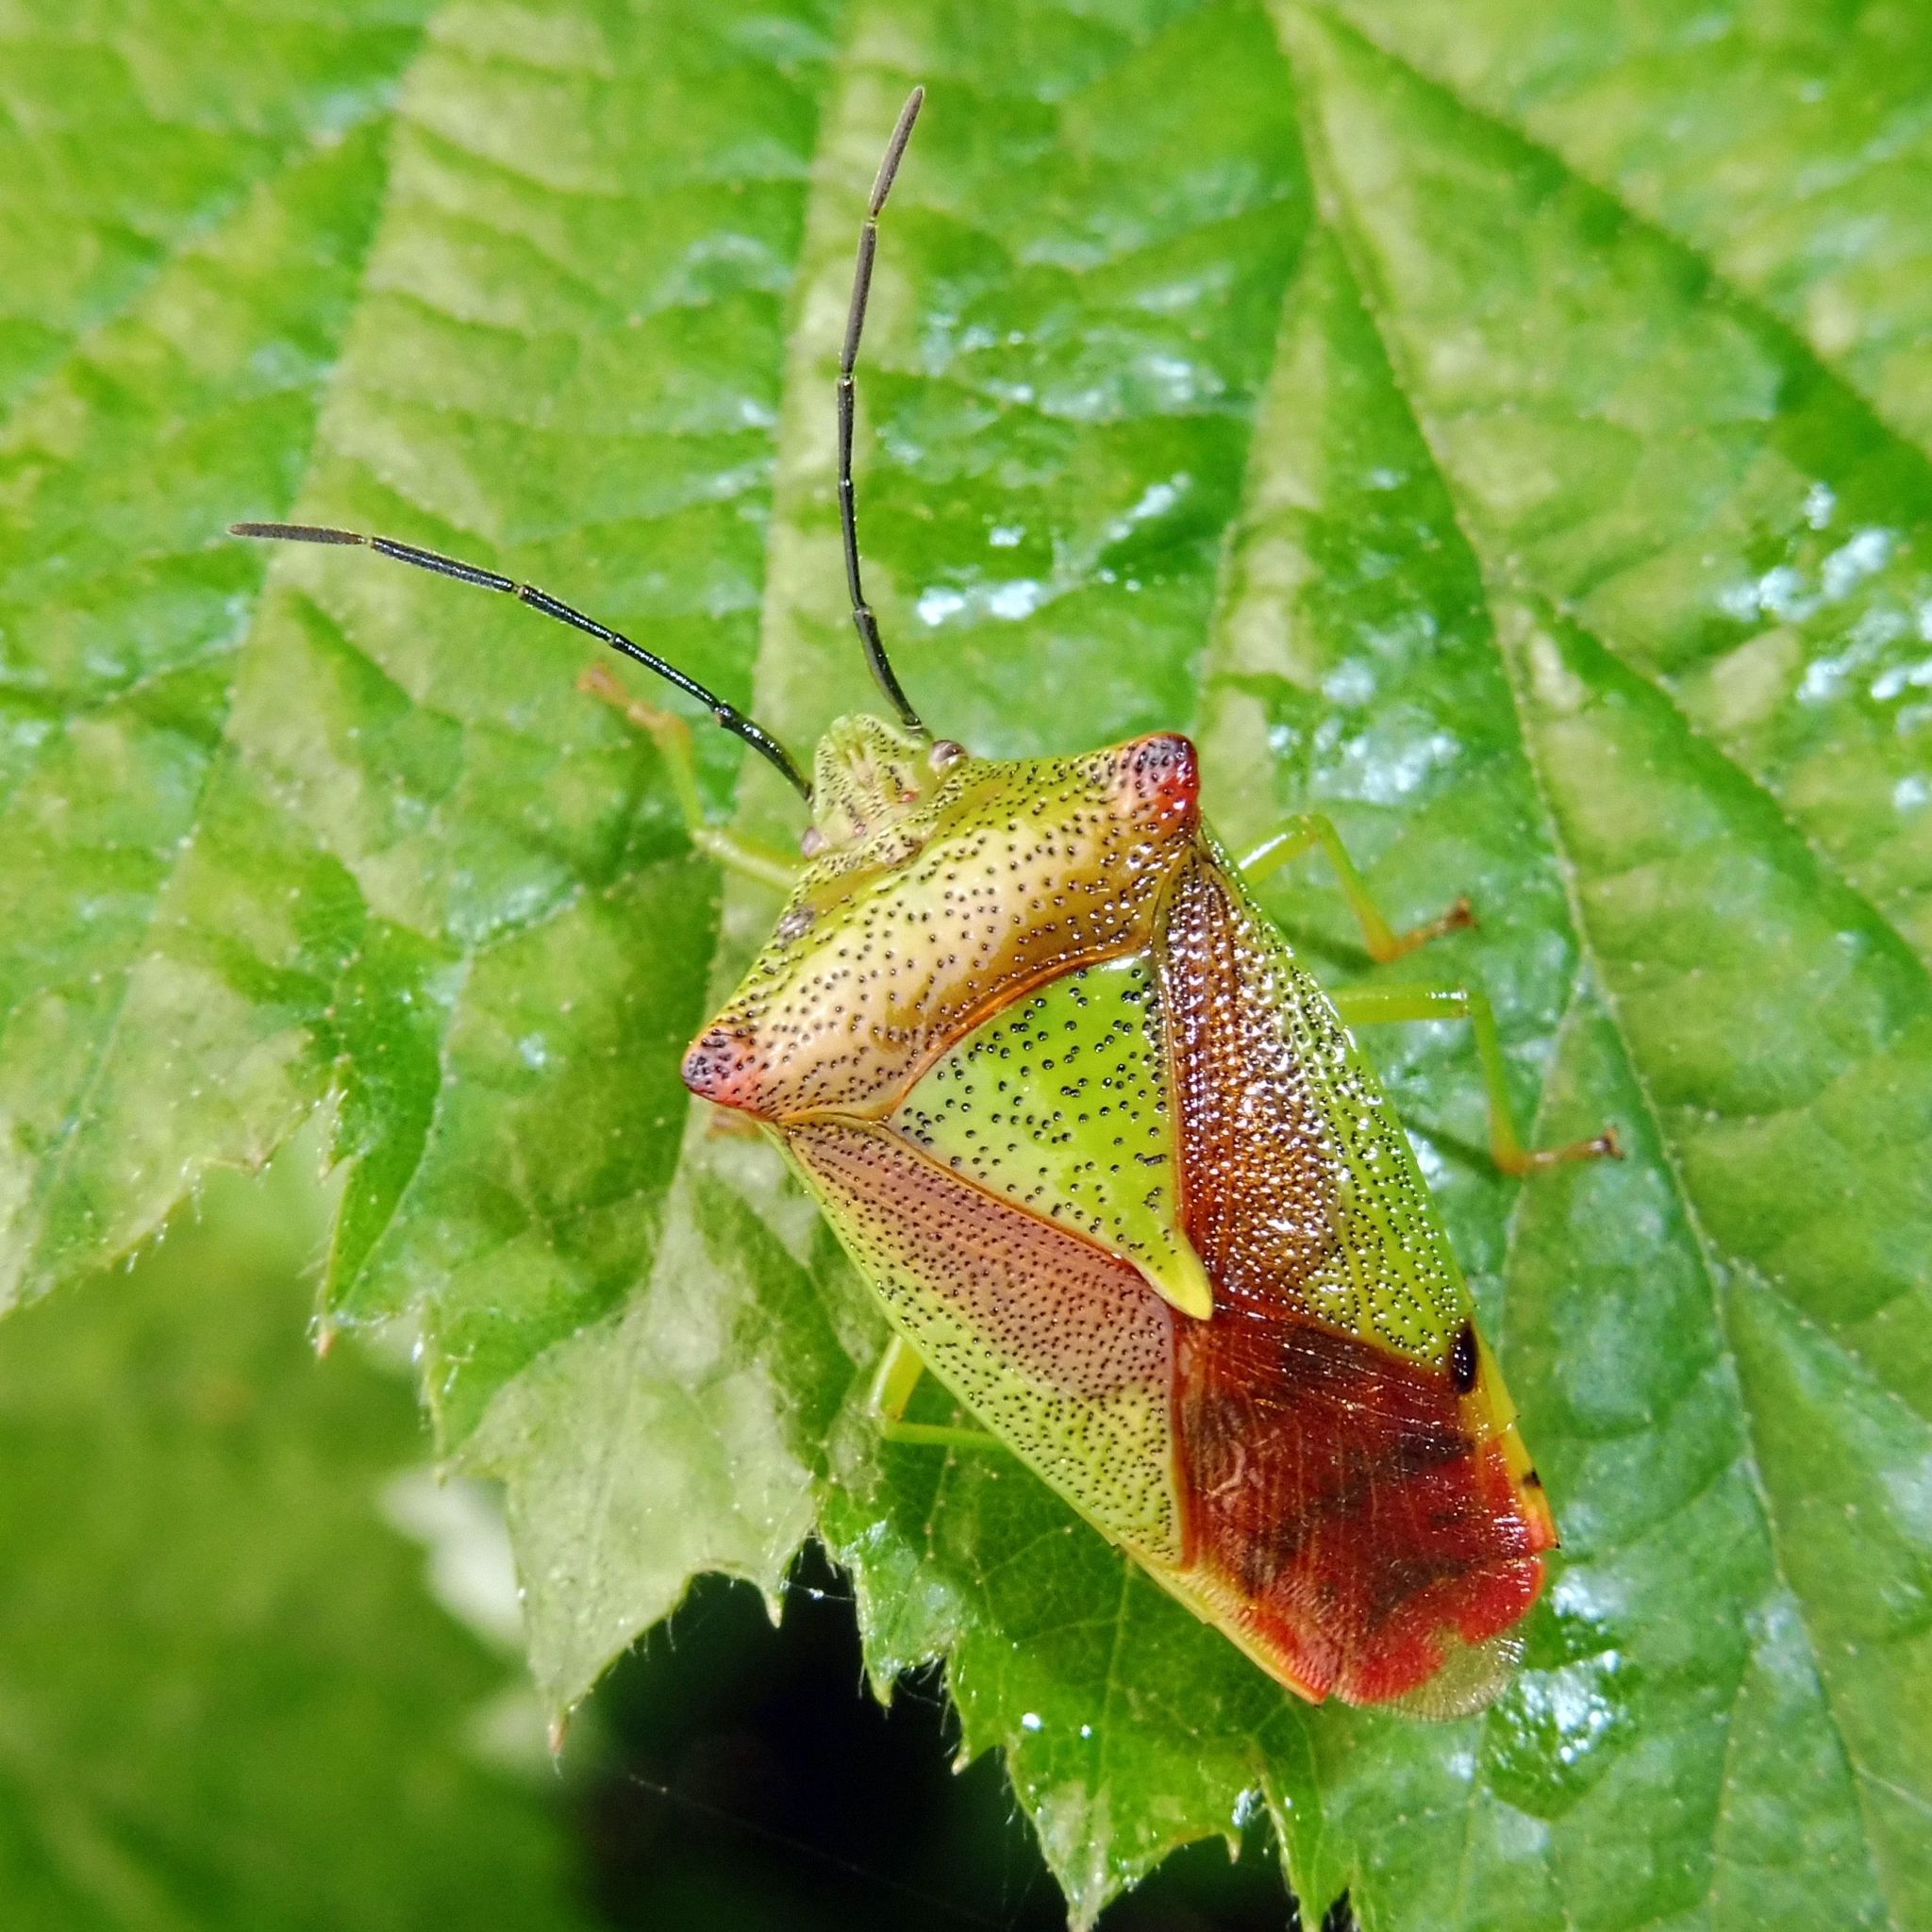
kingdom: Animalia
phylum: Arthropoda
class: Insecta
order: Hemiptera
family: Acanthosomatidae
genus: Acanthosoma
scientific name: Acanthosoma haemorrhoidale
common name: Hawthorn shieldbug
